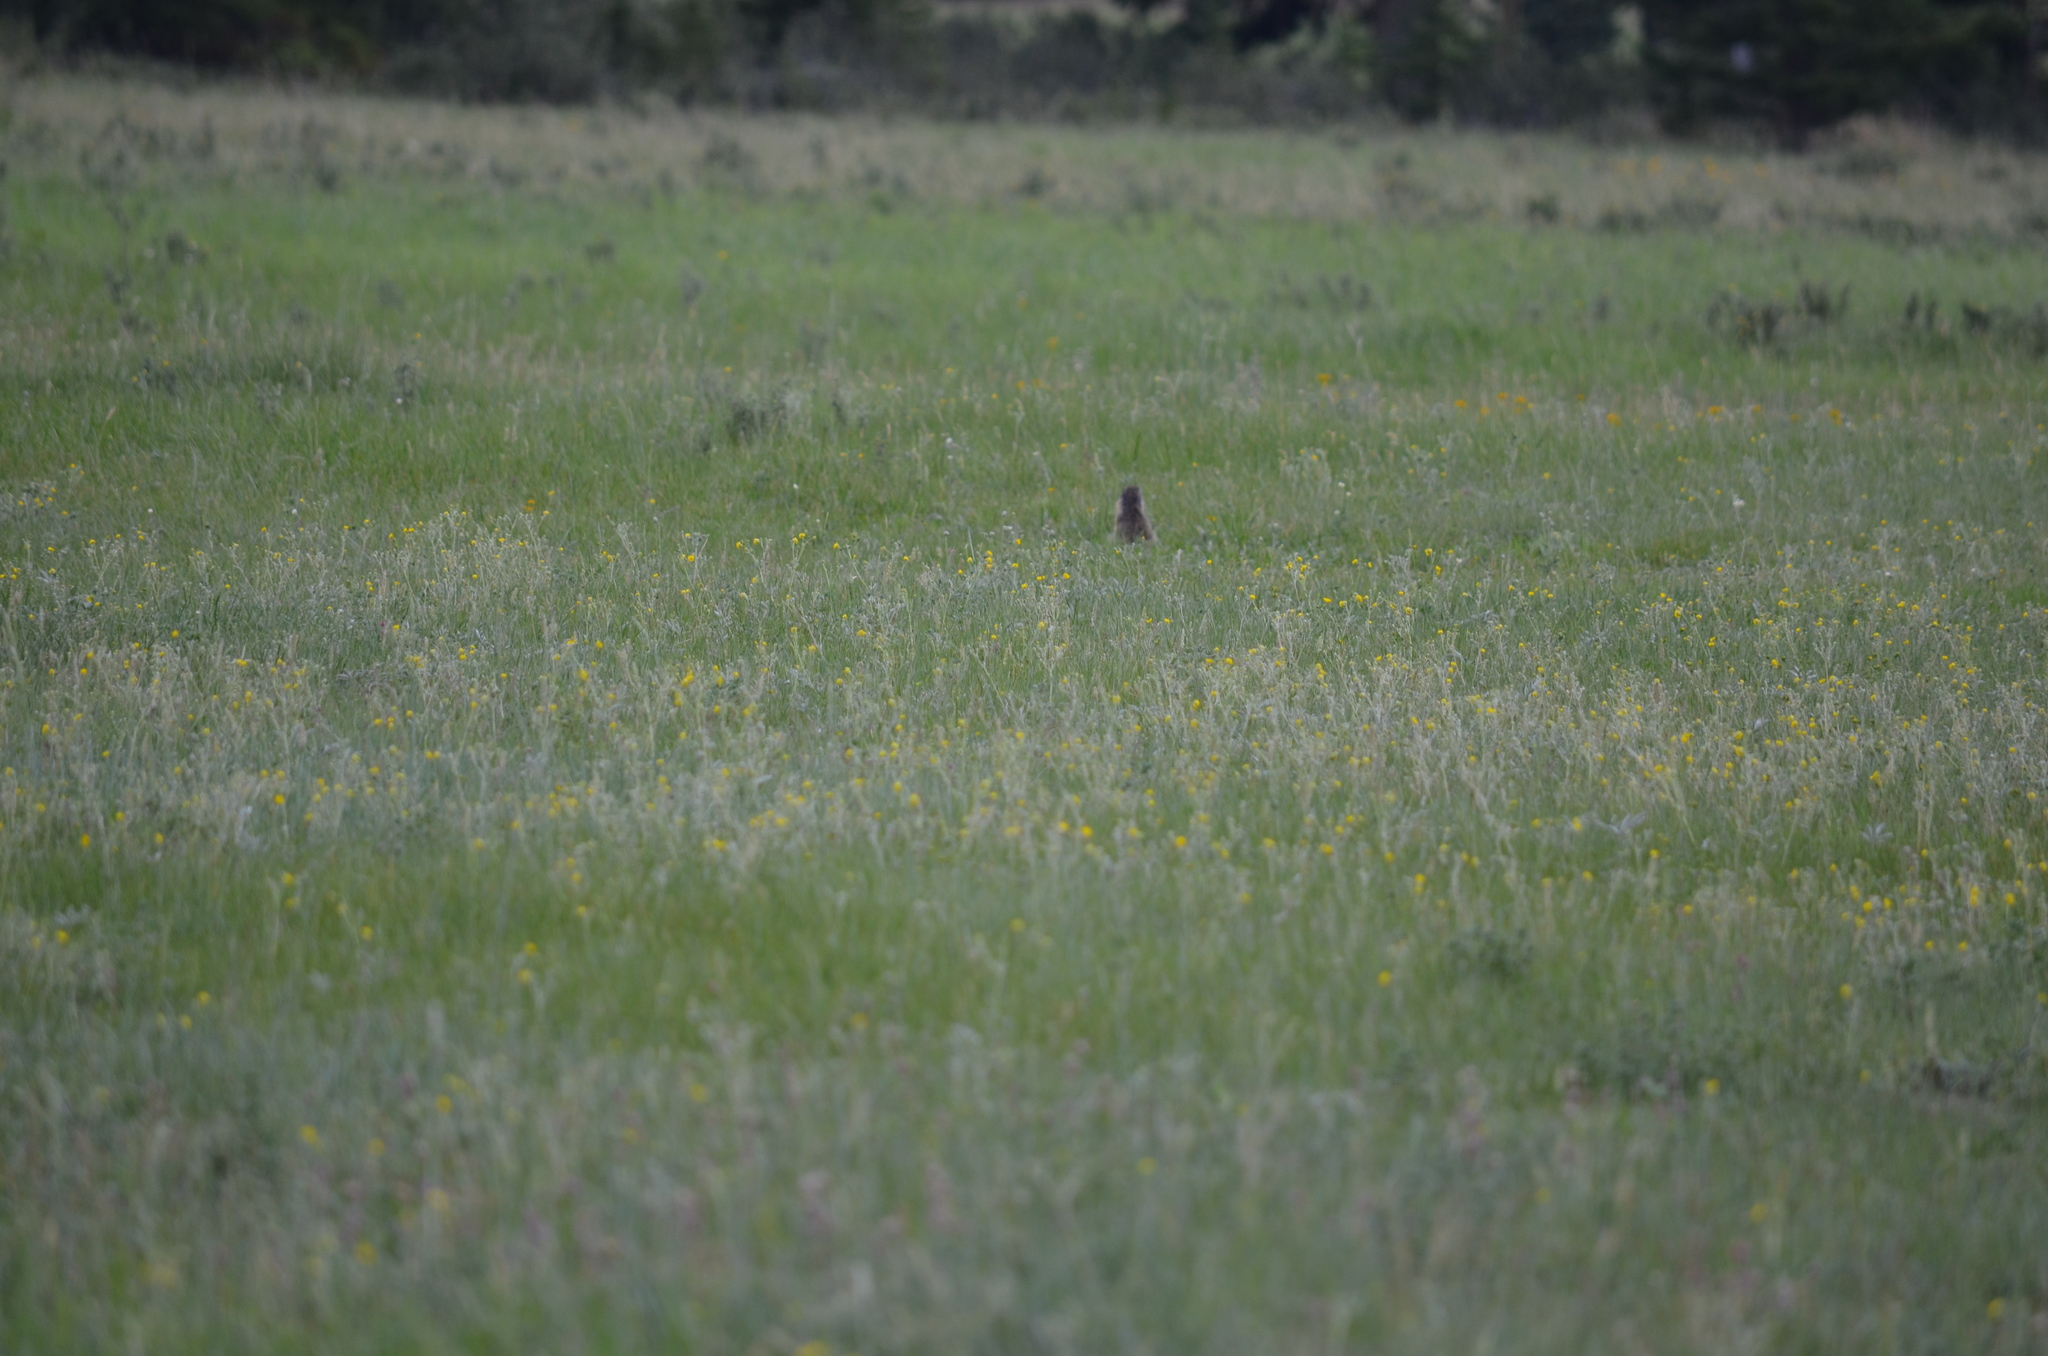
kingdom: Animalia
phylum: Chordata
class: Mammalia
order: Rodentia
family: Sciuridae
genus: Urocitellus
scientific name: Urocitellus columbianus
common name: Columbian ground squirrel
